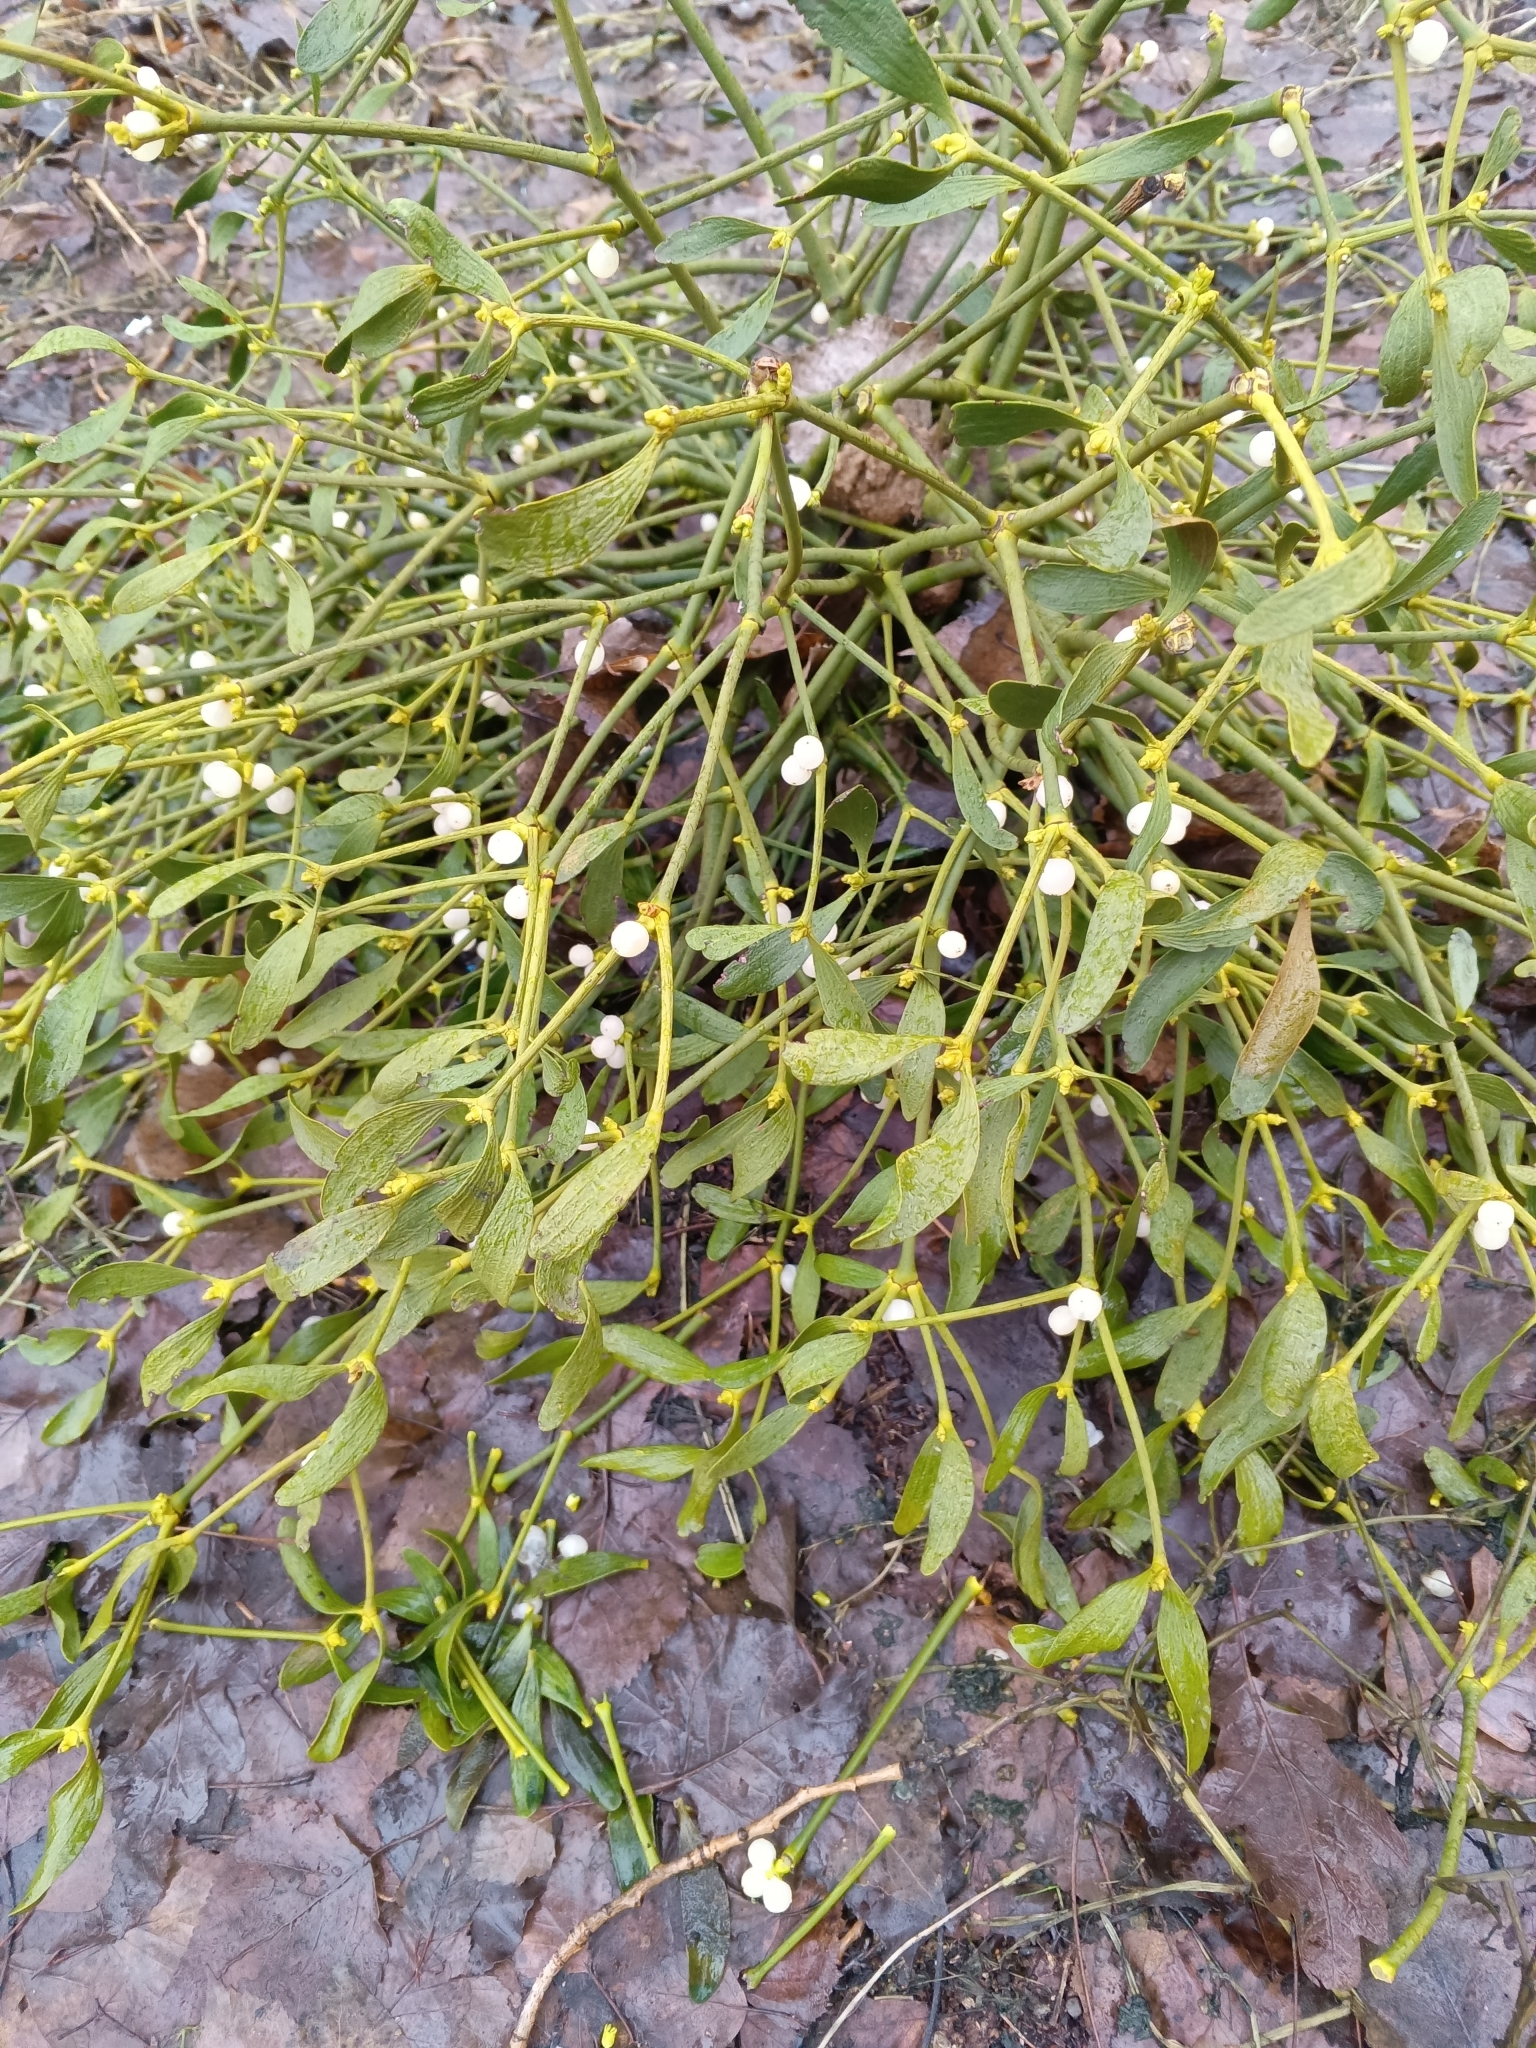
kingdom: Plantae
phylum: Tracheophyta
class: Magnoliopsida
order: Santalales
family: Viscaceae
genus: Viscum
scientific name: Viscum album
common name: Mistletoe
